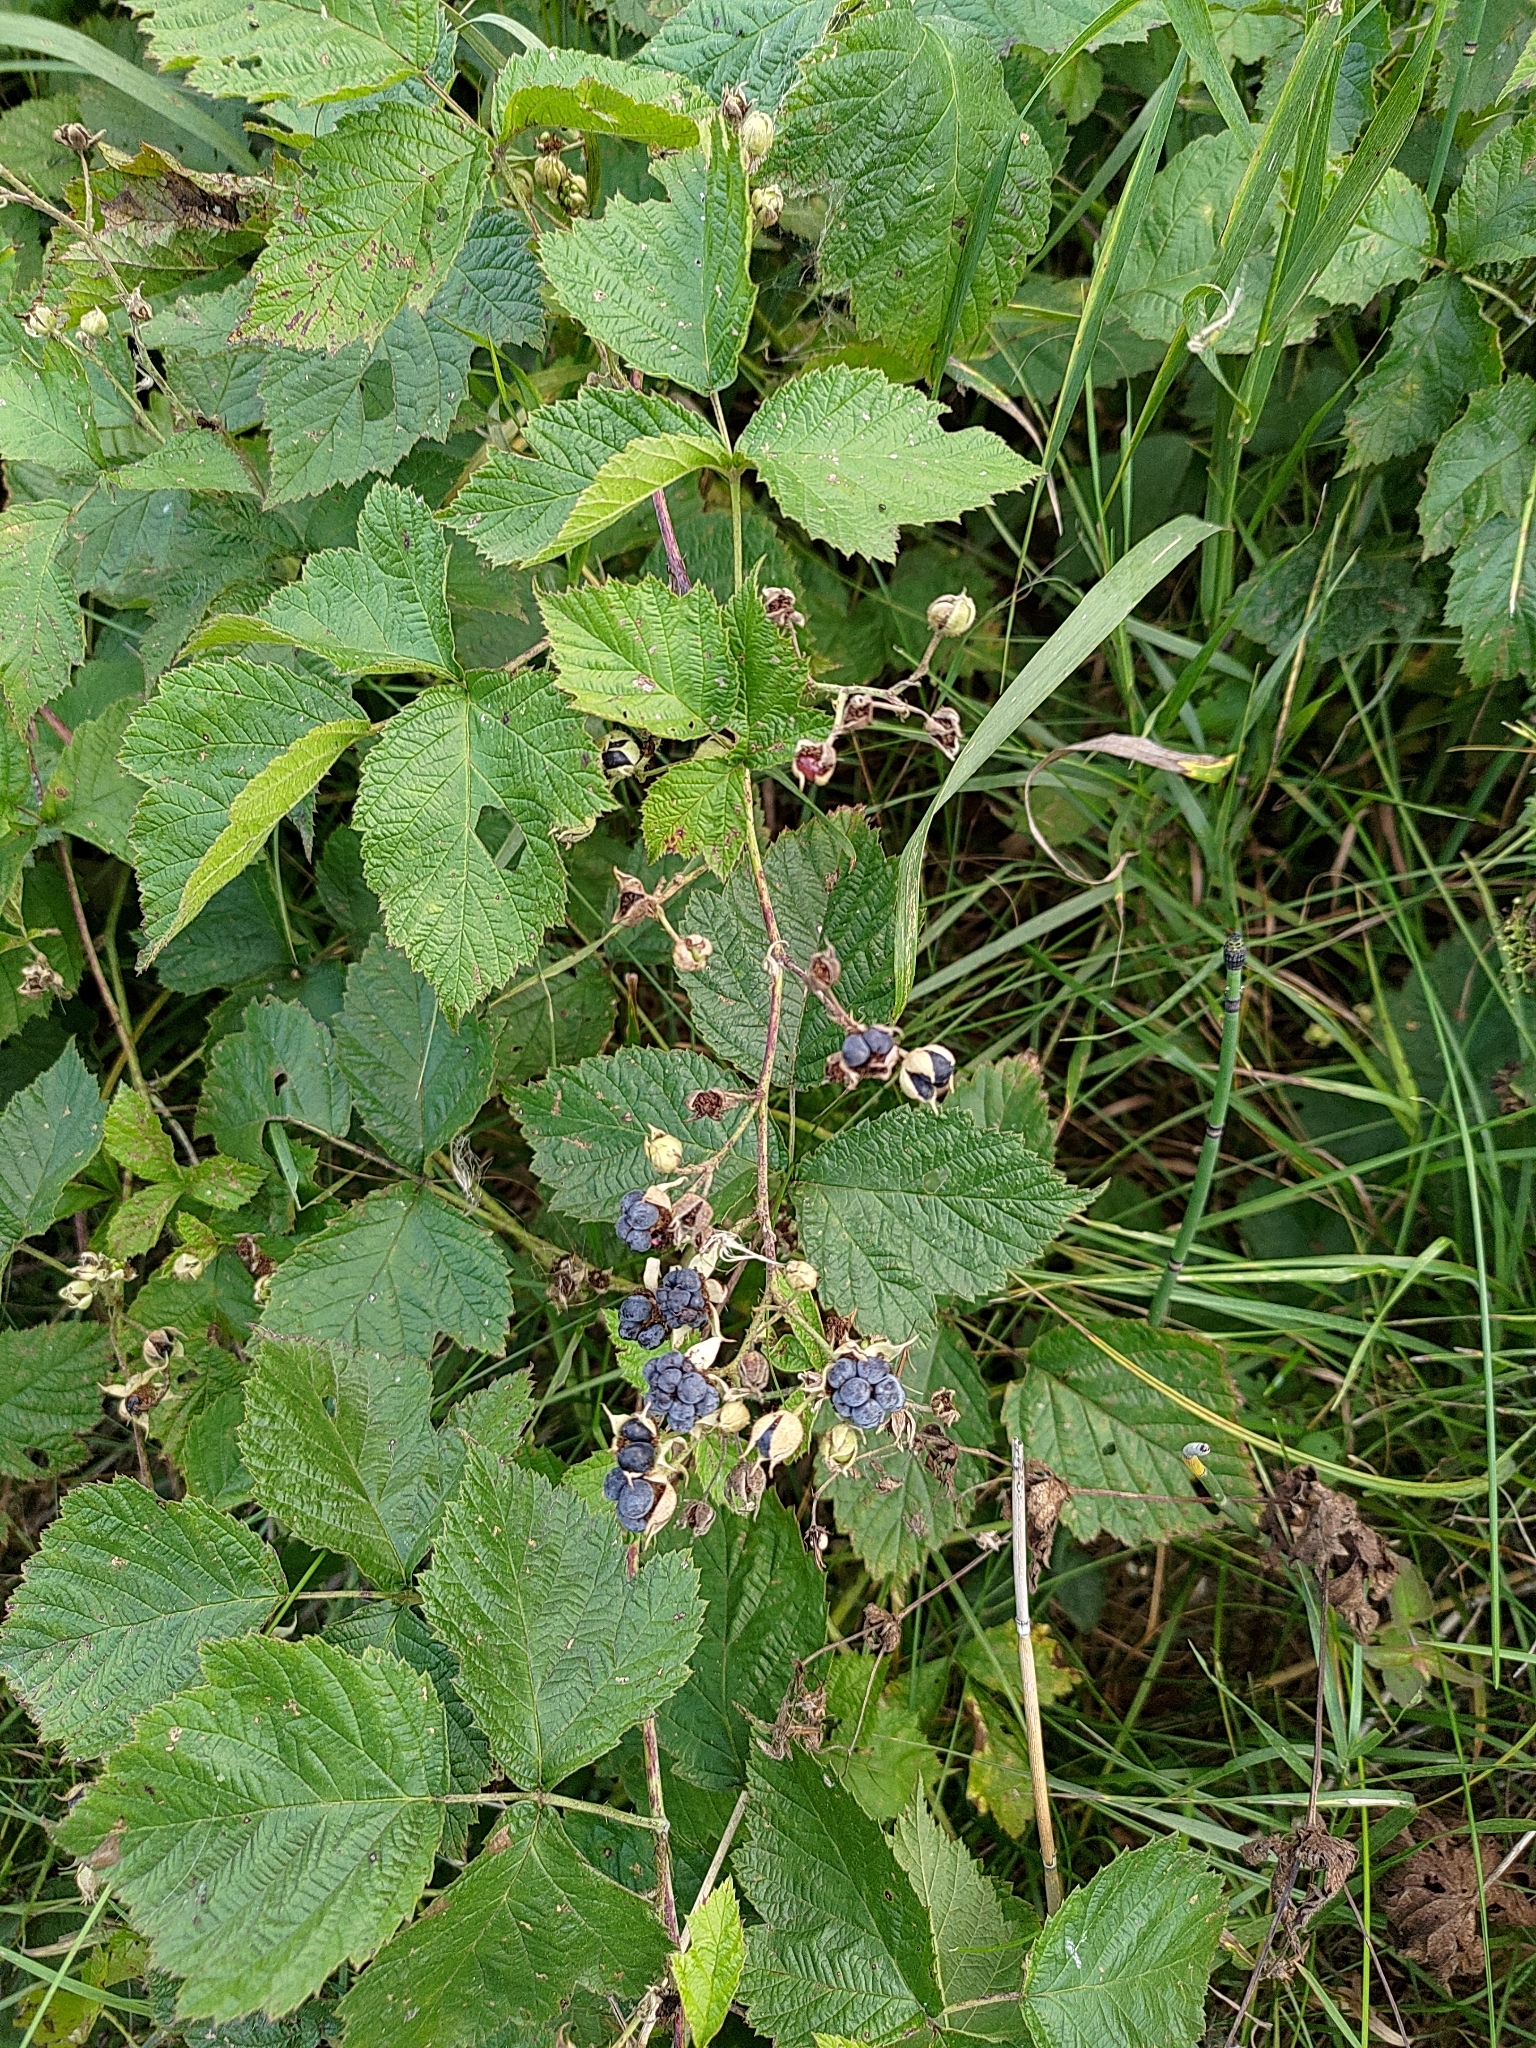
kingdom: Plantae
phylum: Tracheophyta
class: Magnoliopsida
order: Rosales
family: Rosaceae
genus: Rubus
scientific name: Rubus caesius
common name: Dewberry
